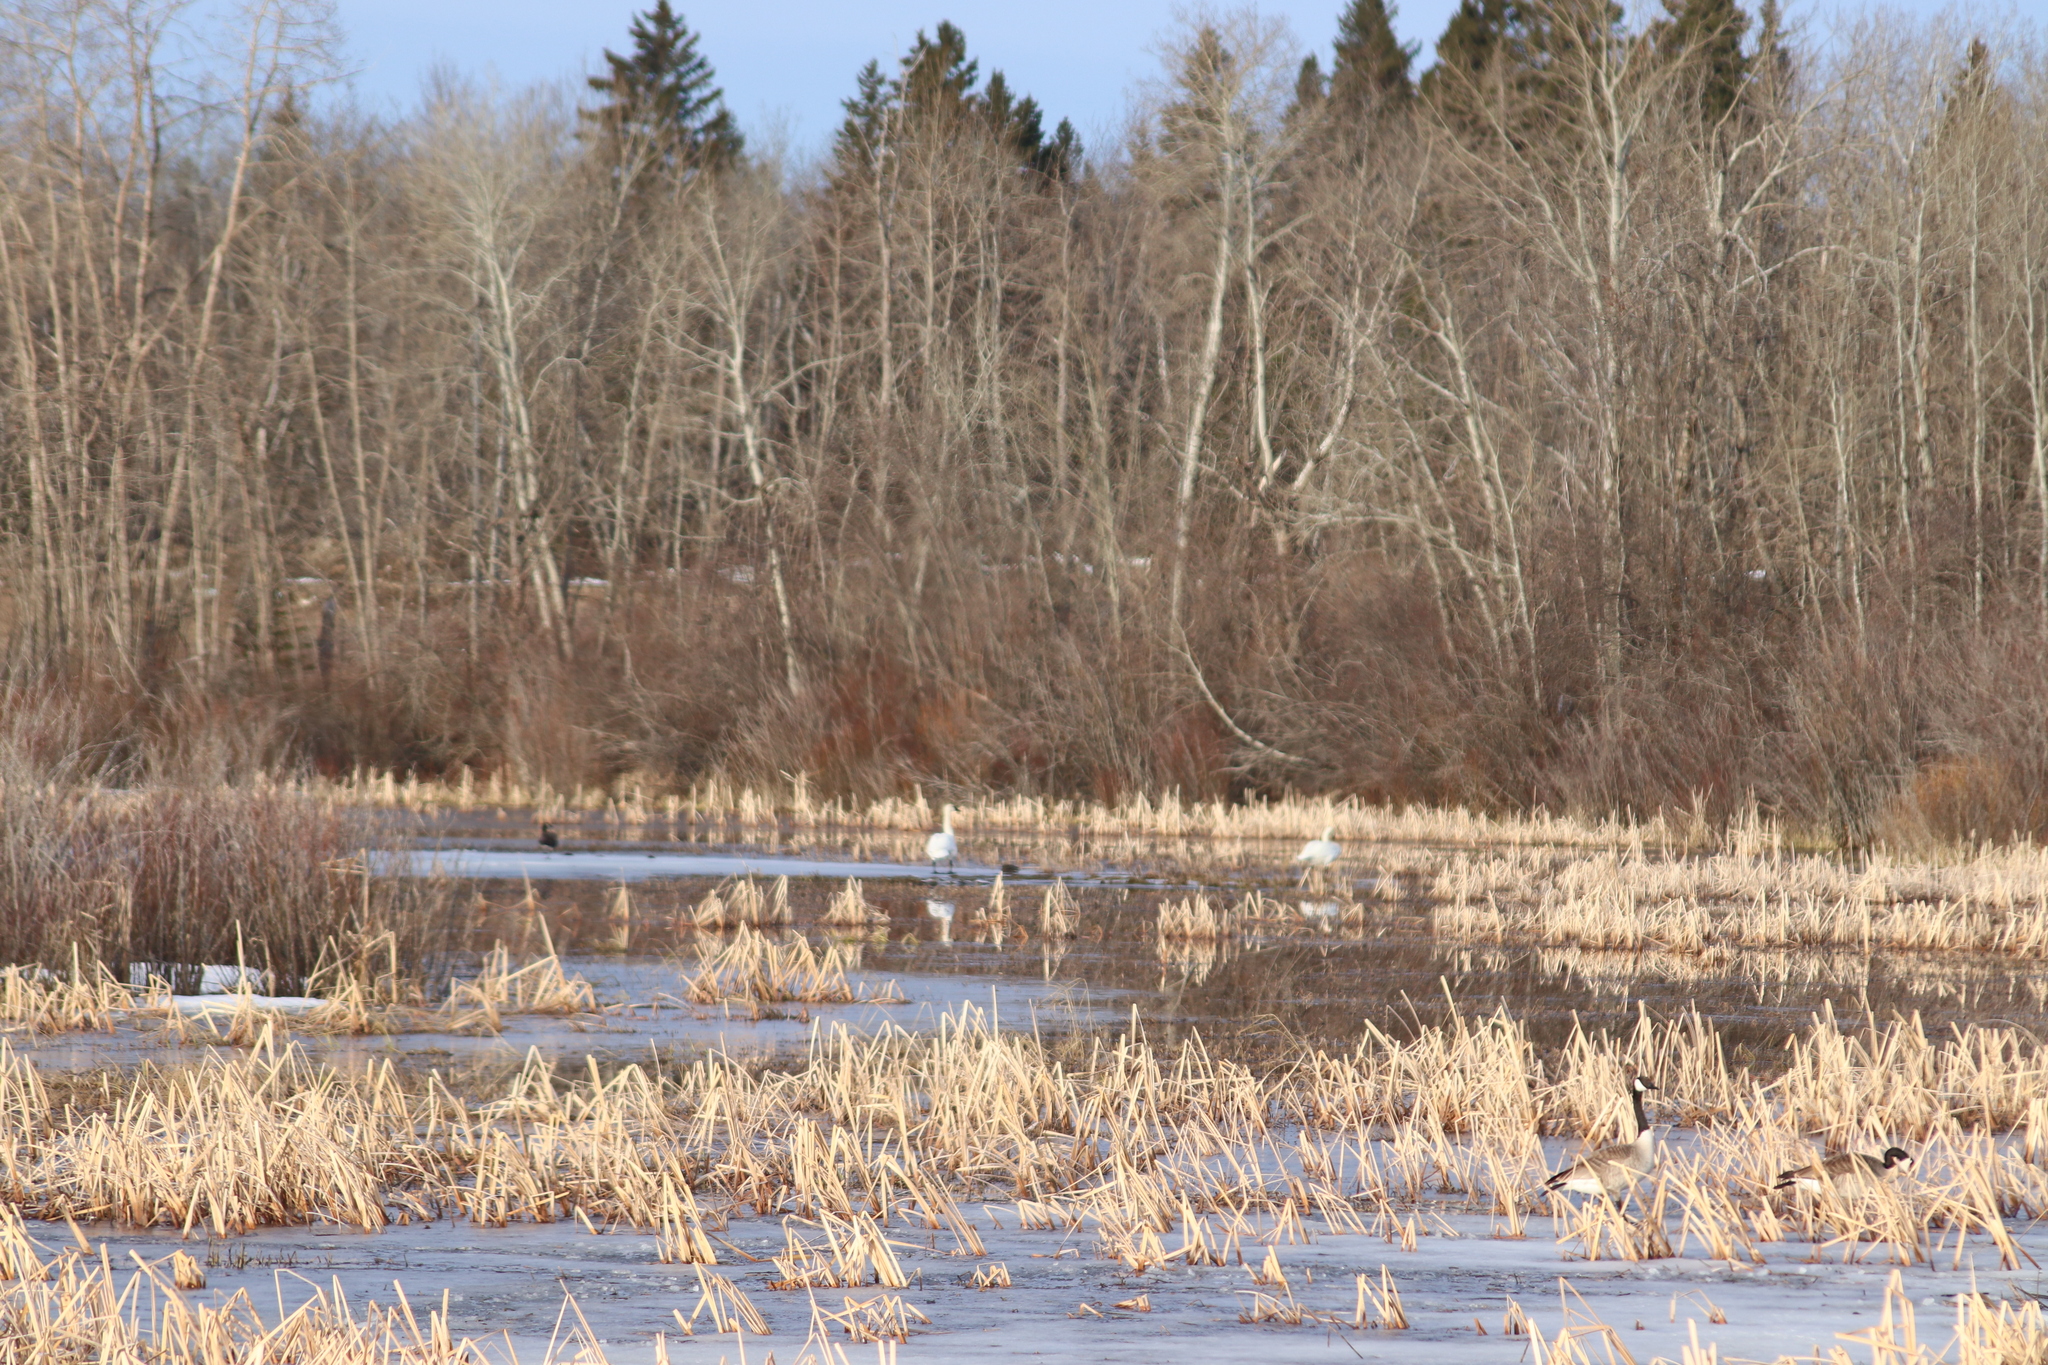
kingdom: Animalia
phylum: Chordata
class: Aves
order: Anseriformes
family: Anatidae
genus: Cygnus
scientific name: Cygnus buccinator
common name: Trumpeter swan
